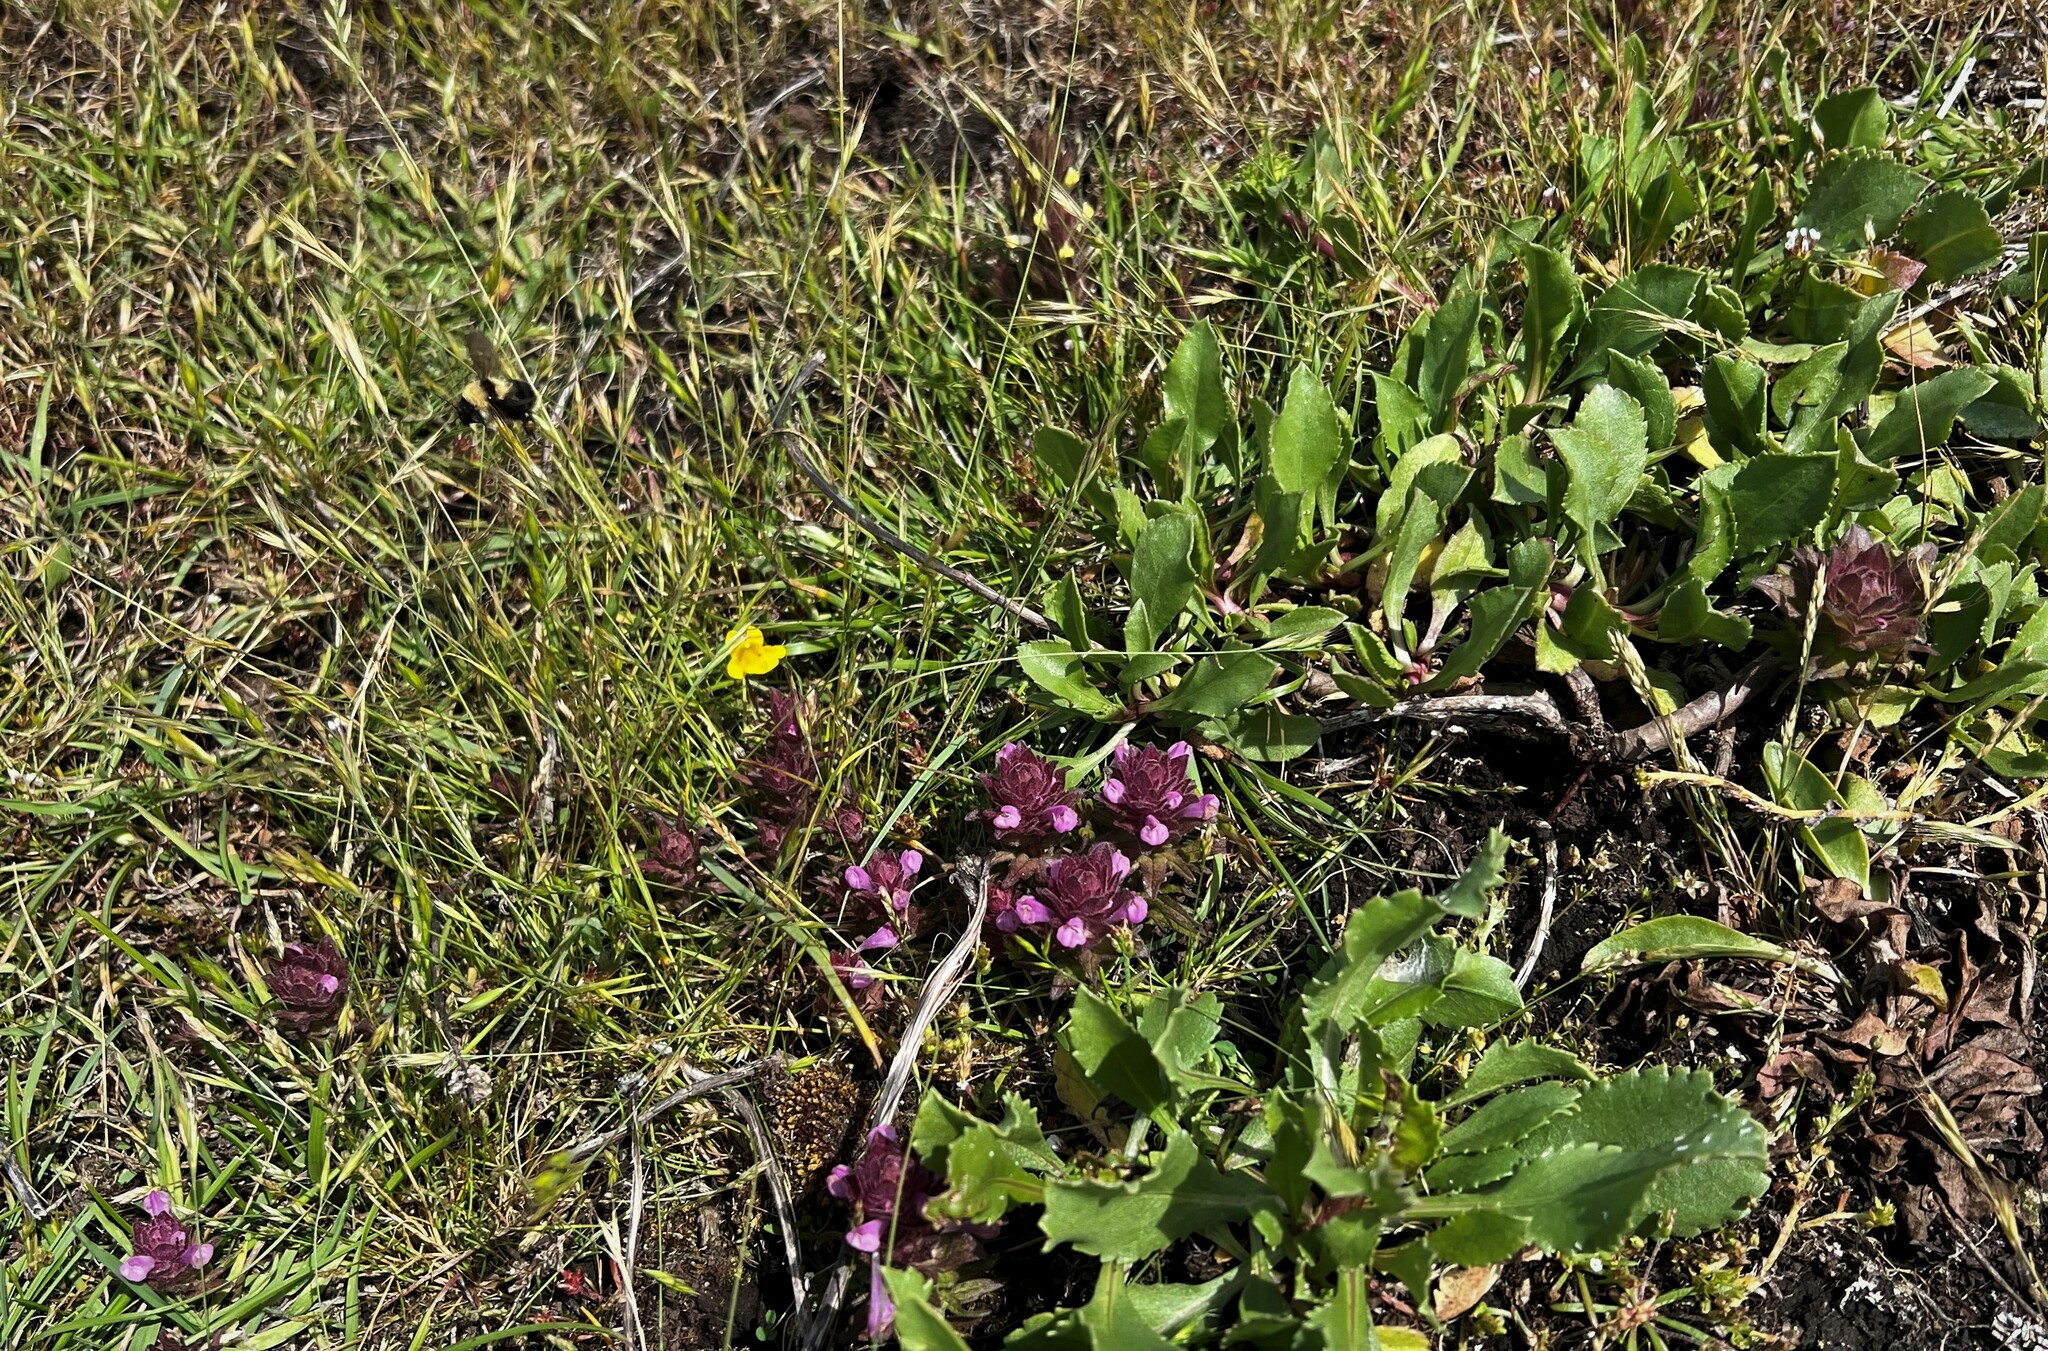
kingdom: Plantae
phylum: Tracheophyta
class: Magnoliopsida
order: Lamiales
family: Orobanchaceae
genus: Orthocarpus
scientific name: Orthocarpus bracteosus
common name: Rosy owl's-clover
